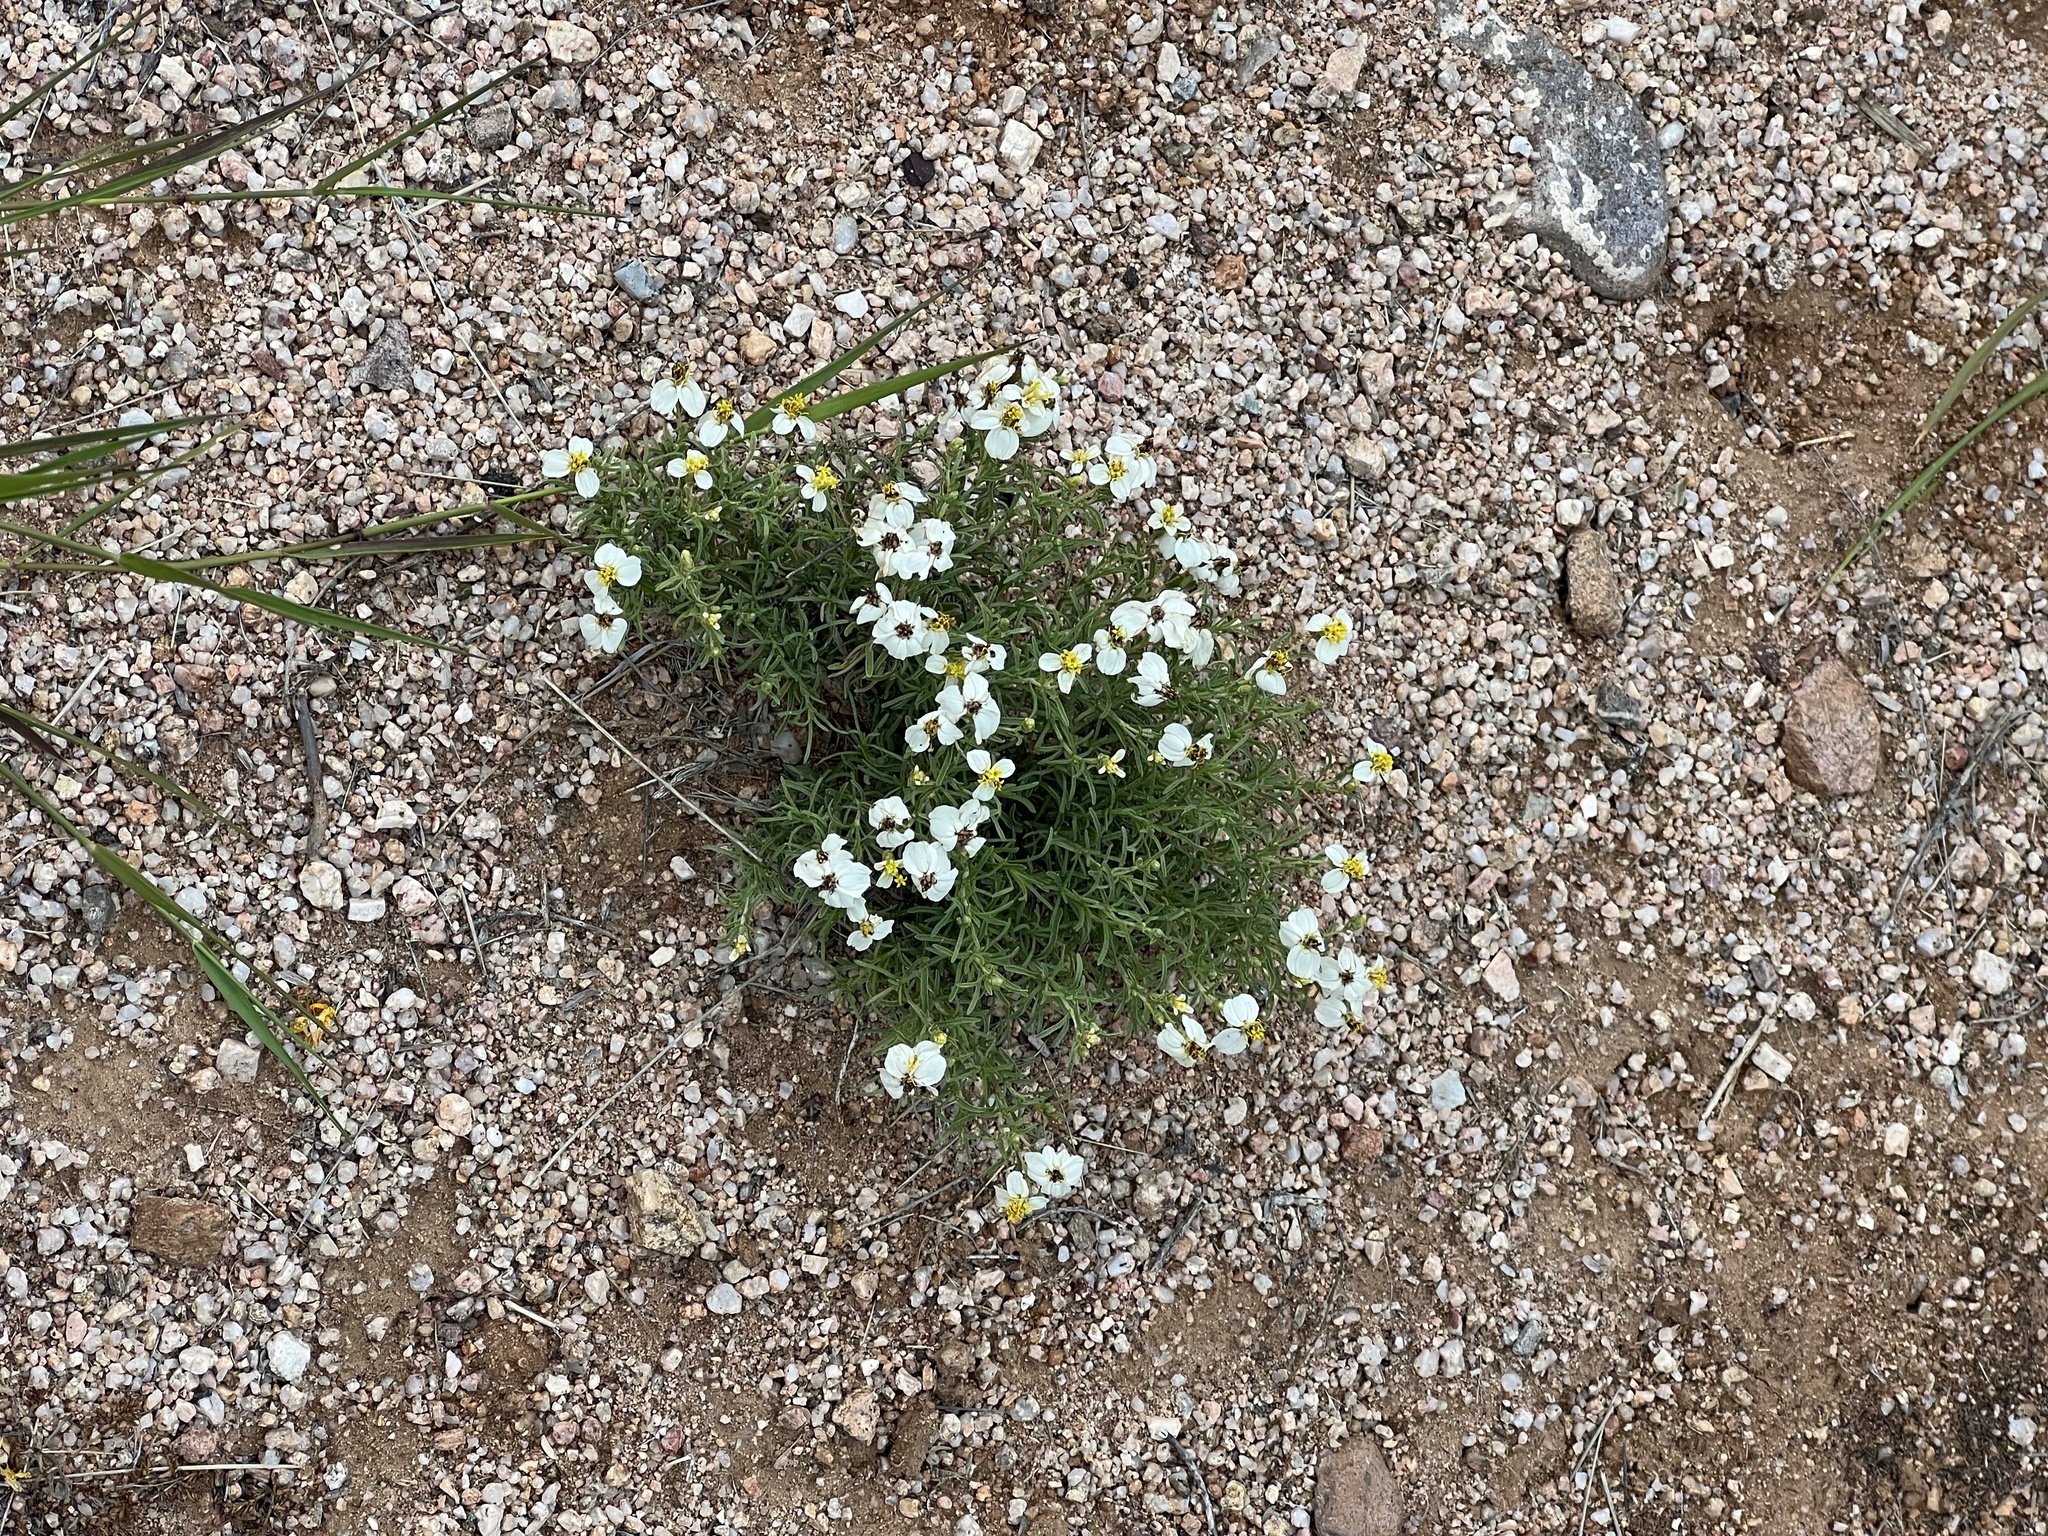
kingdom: Plantae
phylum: Tracheophyta
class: Magnoliopsida
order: Asterales
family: Asteraceae
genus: Zinnia
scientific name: Zinnia acerosa
